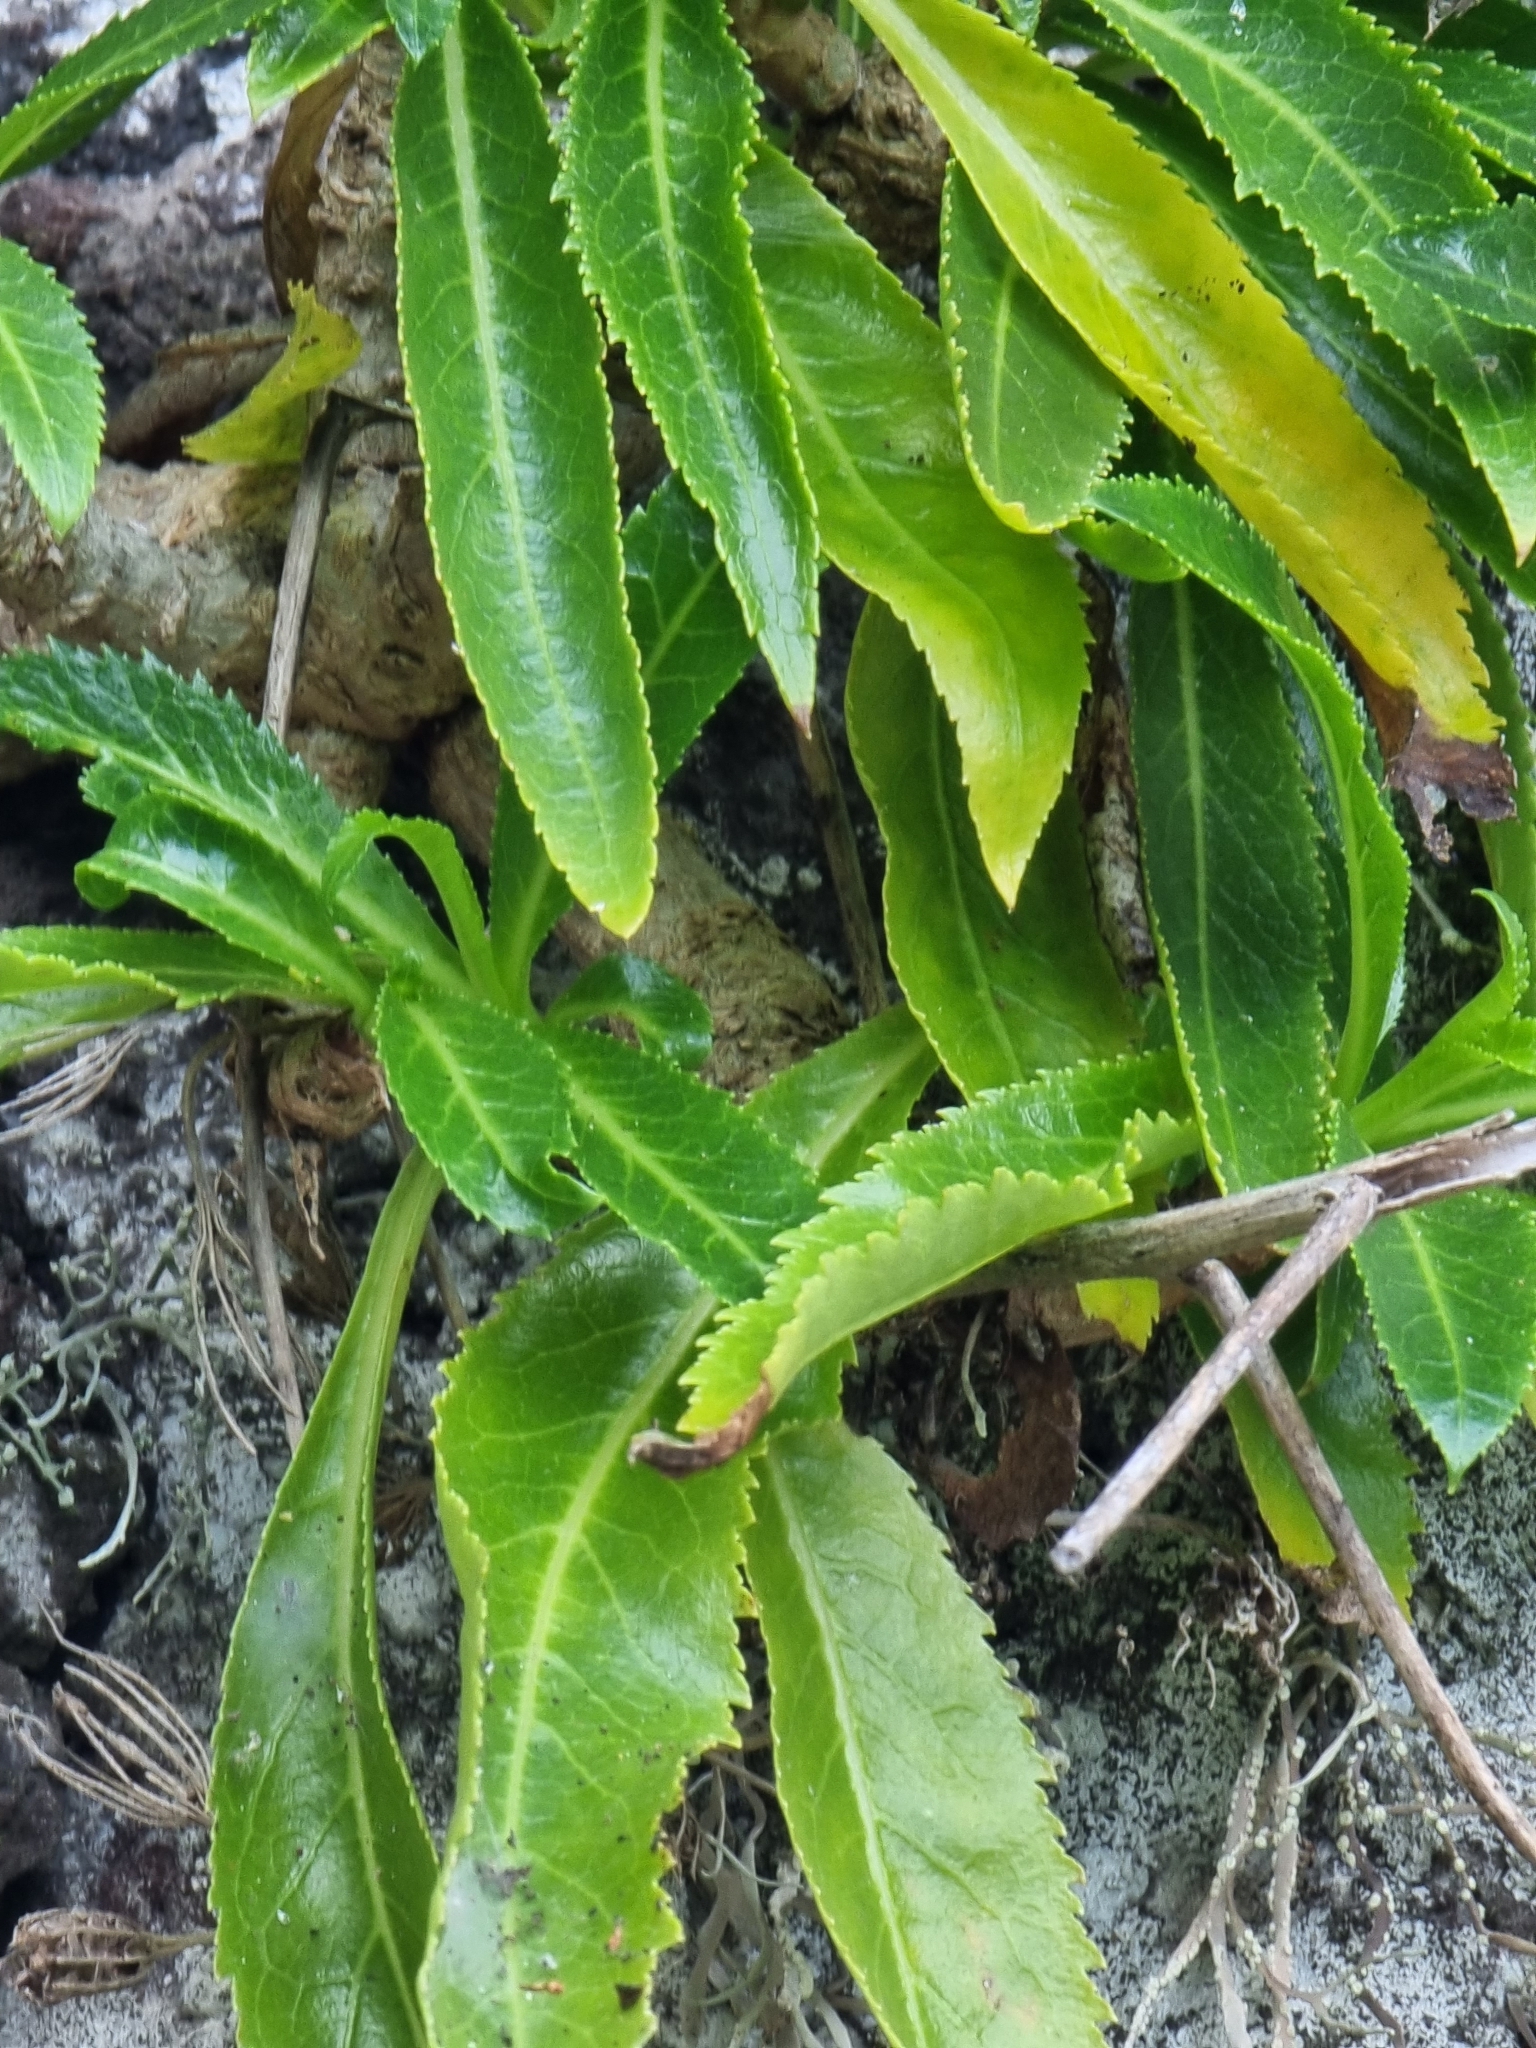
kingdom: Plantae
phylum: Tracheophyta
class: Magnoliopsida
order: Asterales
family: Campanulaceae
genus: Musschia
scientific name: Musschia aurea
